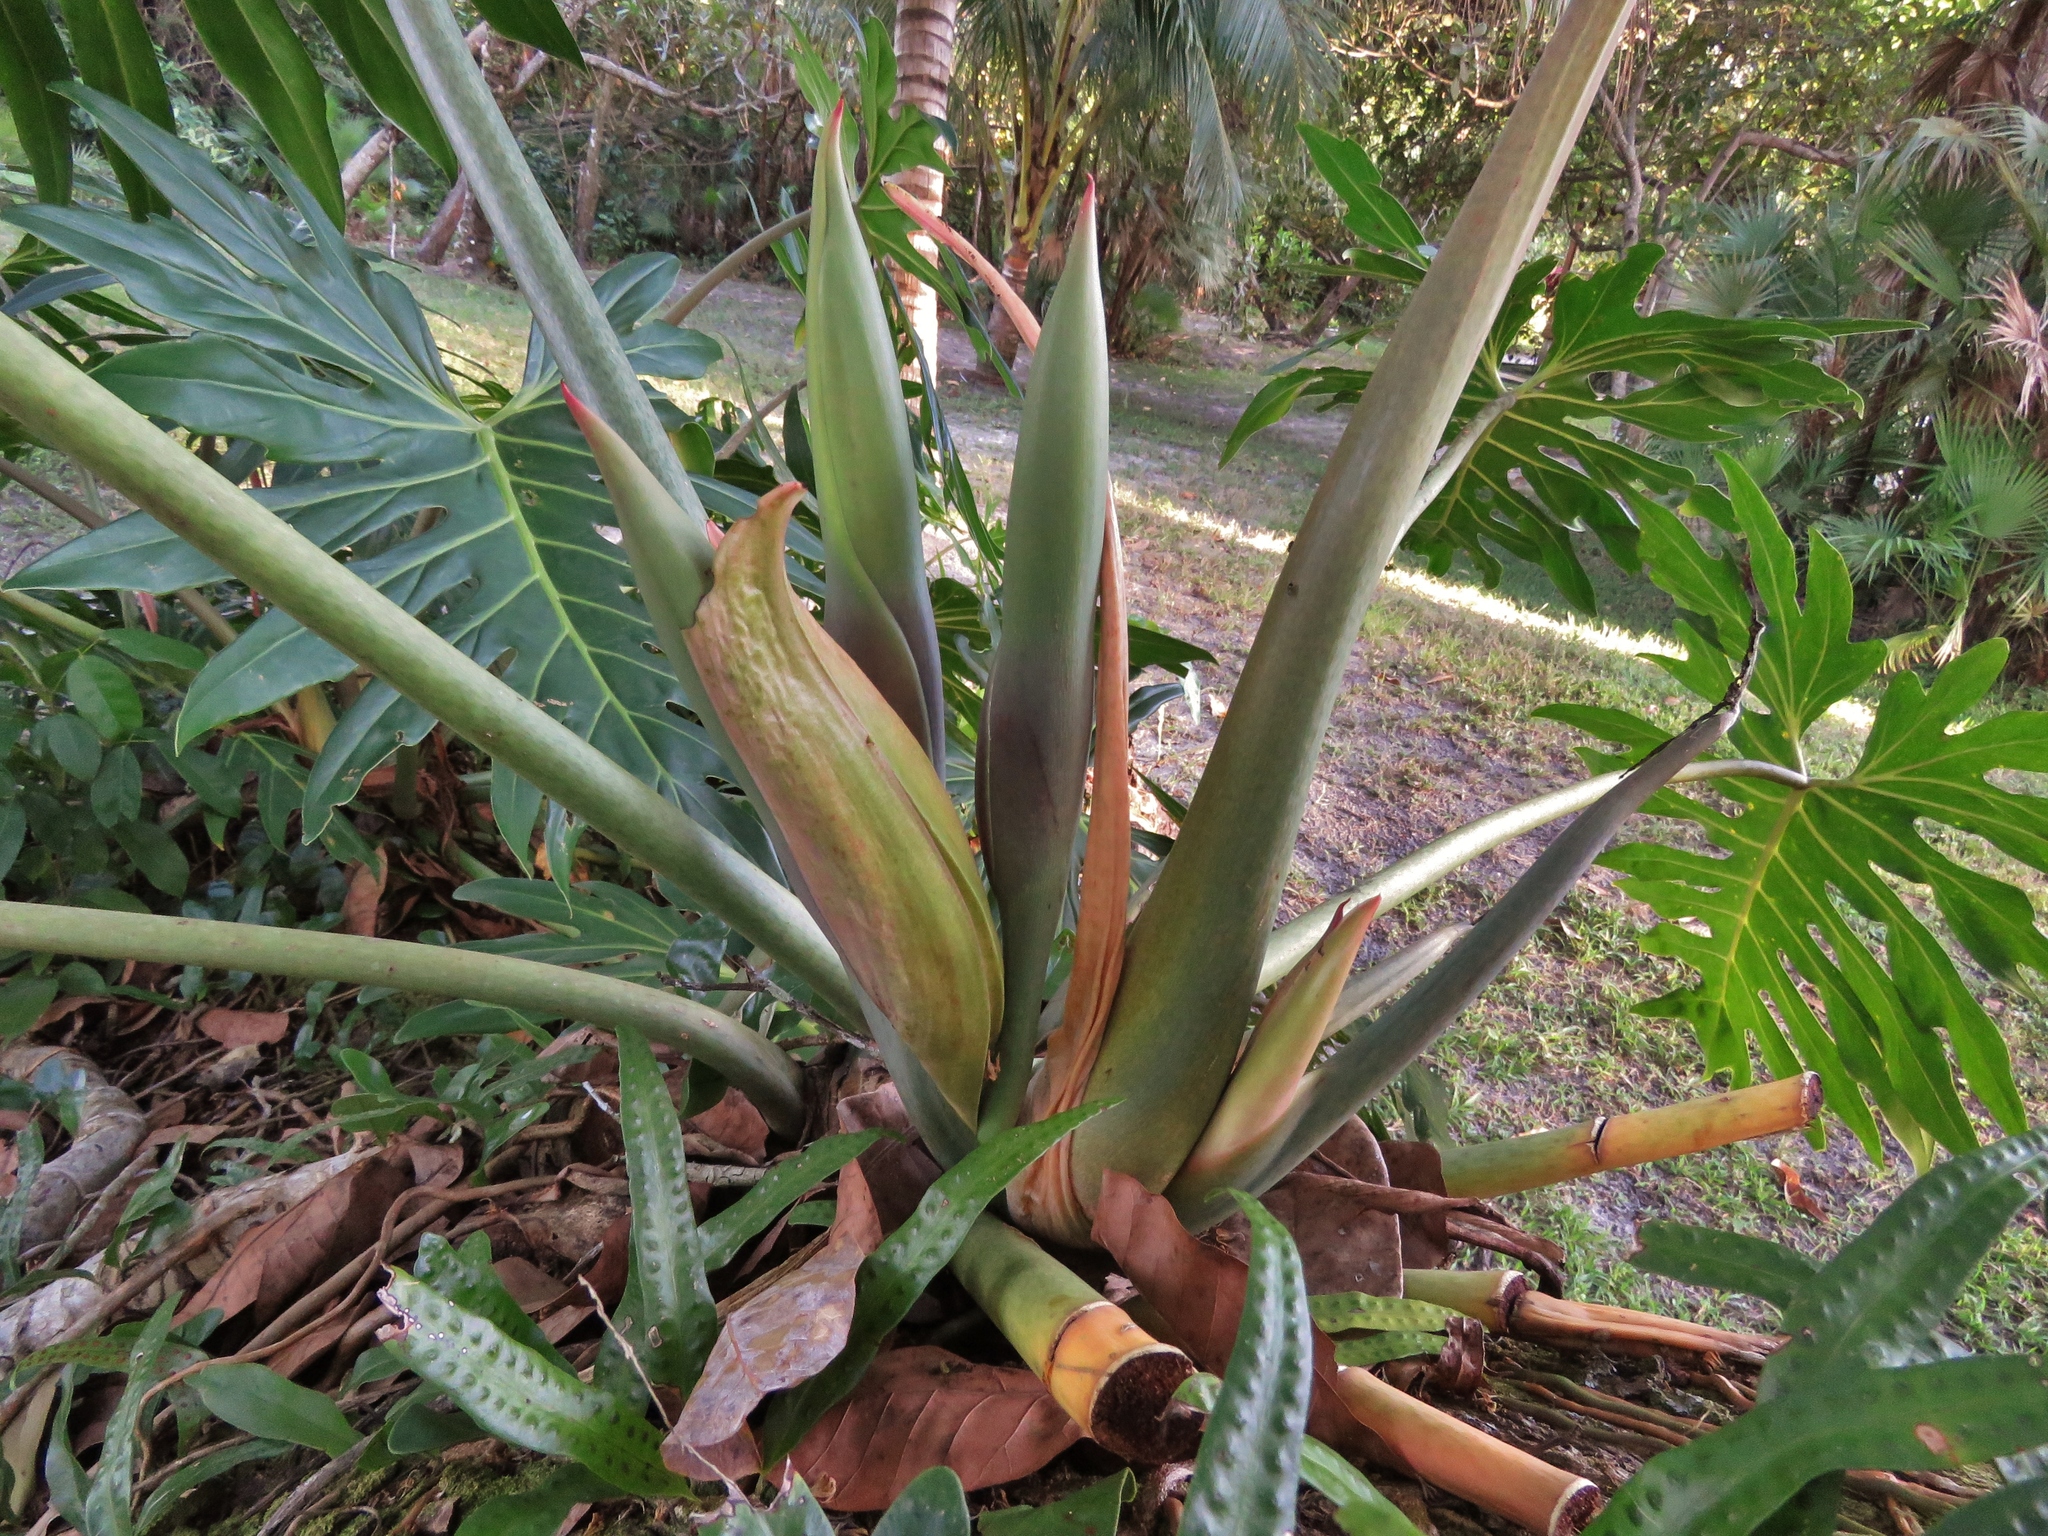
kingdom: Plantae
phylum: Tracheophyta
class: Liliopsida
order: Alismatales
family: Araceae
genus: Philodendron
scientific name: Philodendron radiatum
